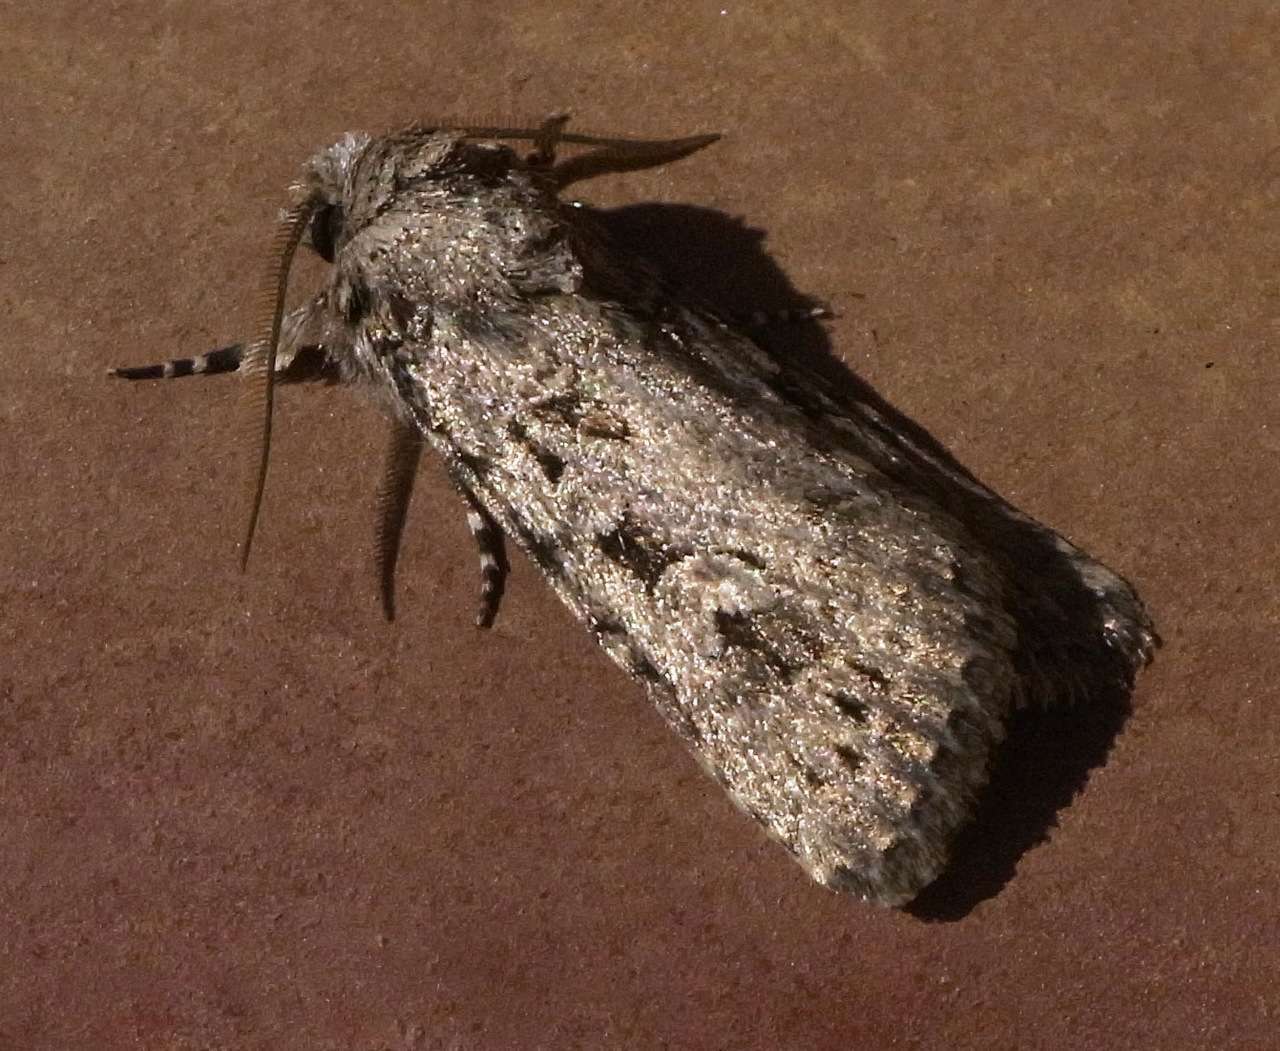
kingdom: Animalia
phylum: Arthropoda
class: Insecta
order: Lepidoptera
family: Noctuidae
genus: Ectopatria
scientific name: Ectopatria mniodes
